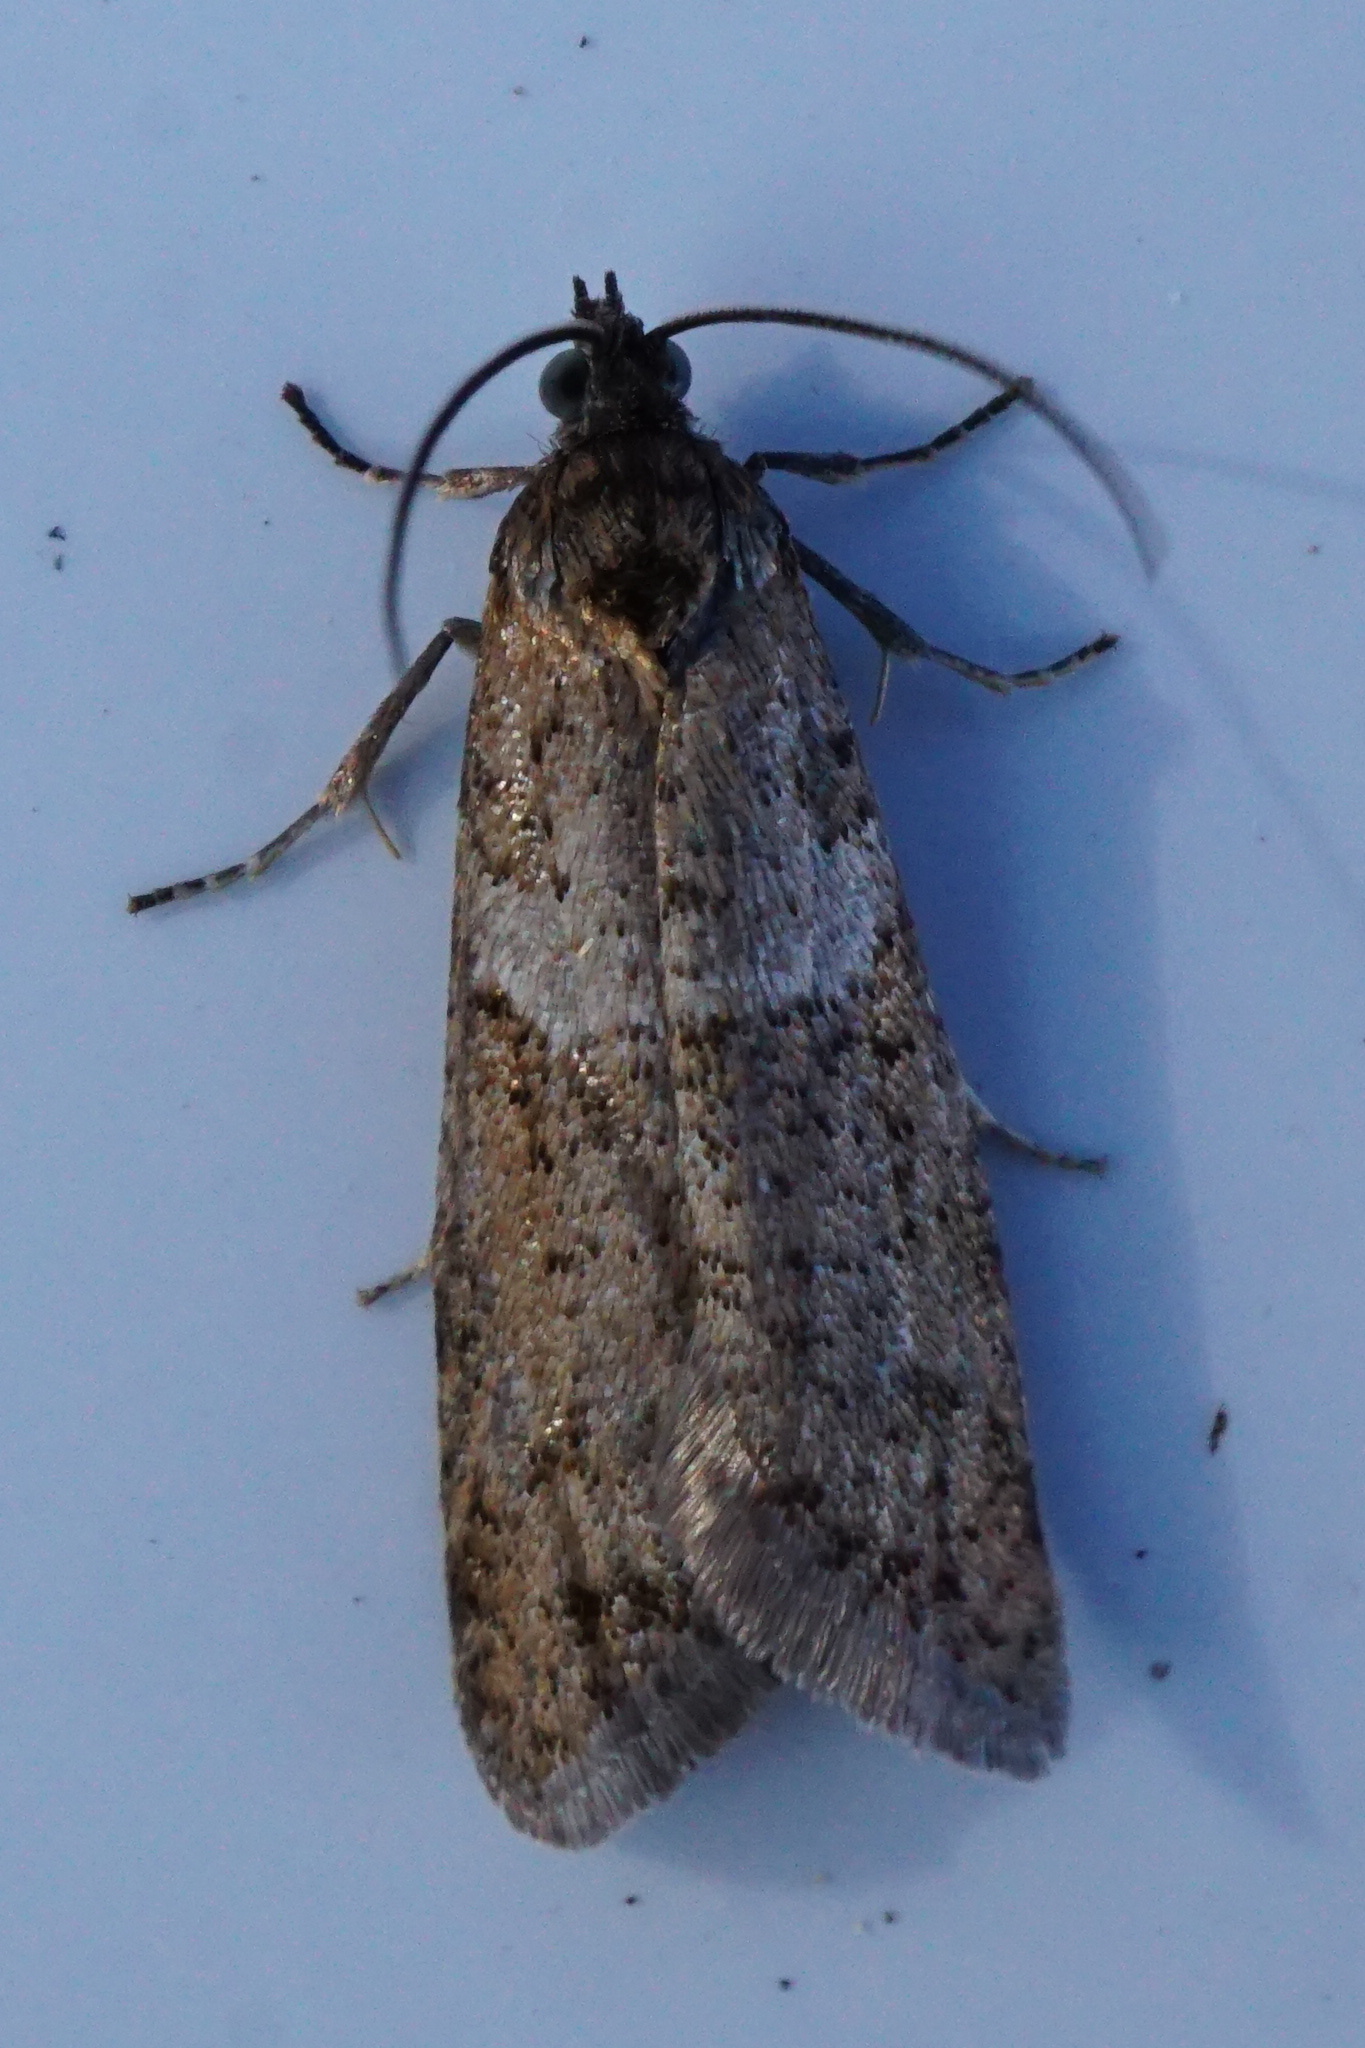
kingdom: Animalia
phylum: Arthropoda
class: Insecta
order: Lepidoptera
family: Tortricidae
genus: Tortricodes
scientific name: Tortricodes alternella
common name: Winter shade
